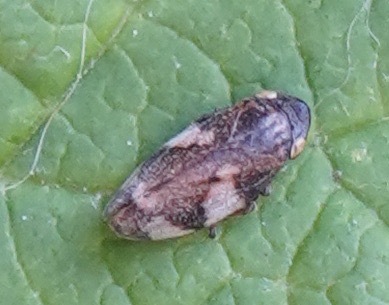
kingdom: Animalia
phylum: Arthropoda
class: Insecta
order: Hemiptera
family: Aphrophoridae
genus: Philaenus
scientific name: Philaenus spumarius
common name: Meadow spittlebug
